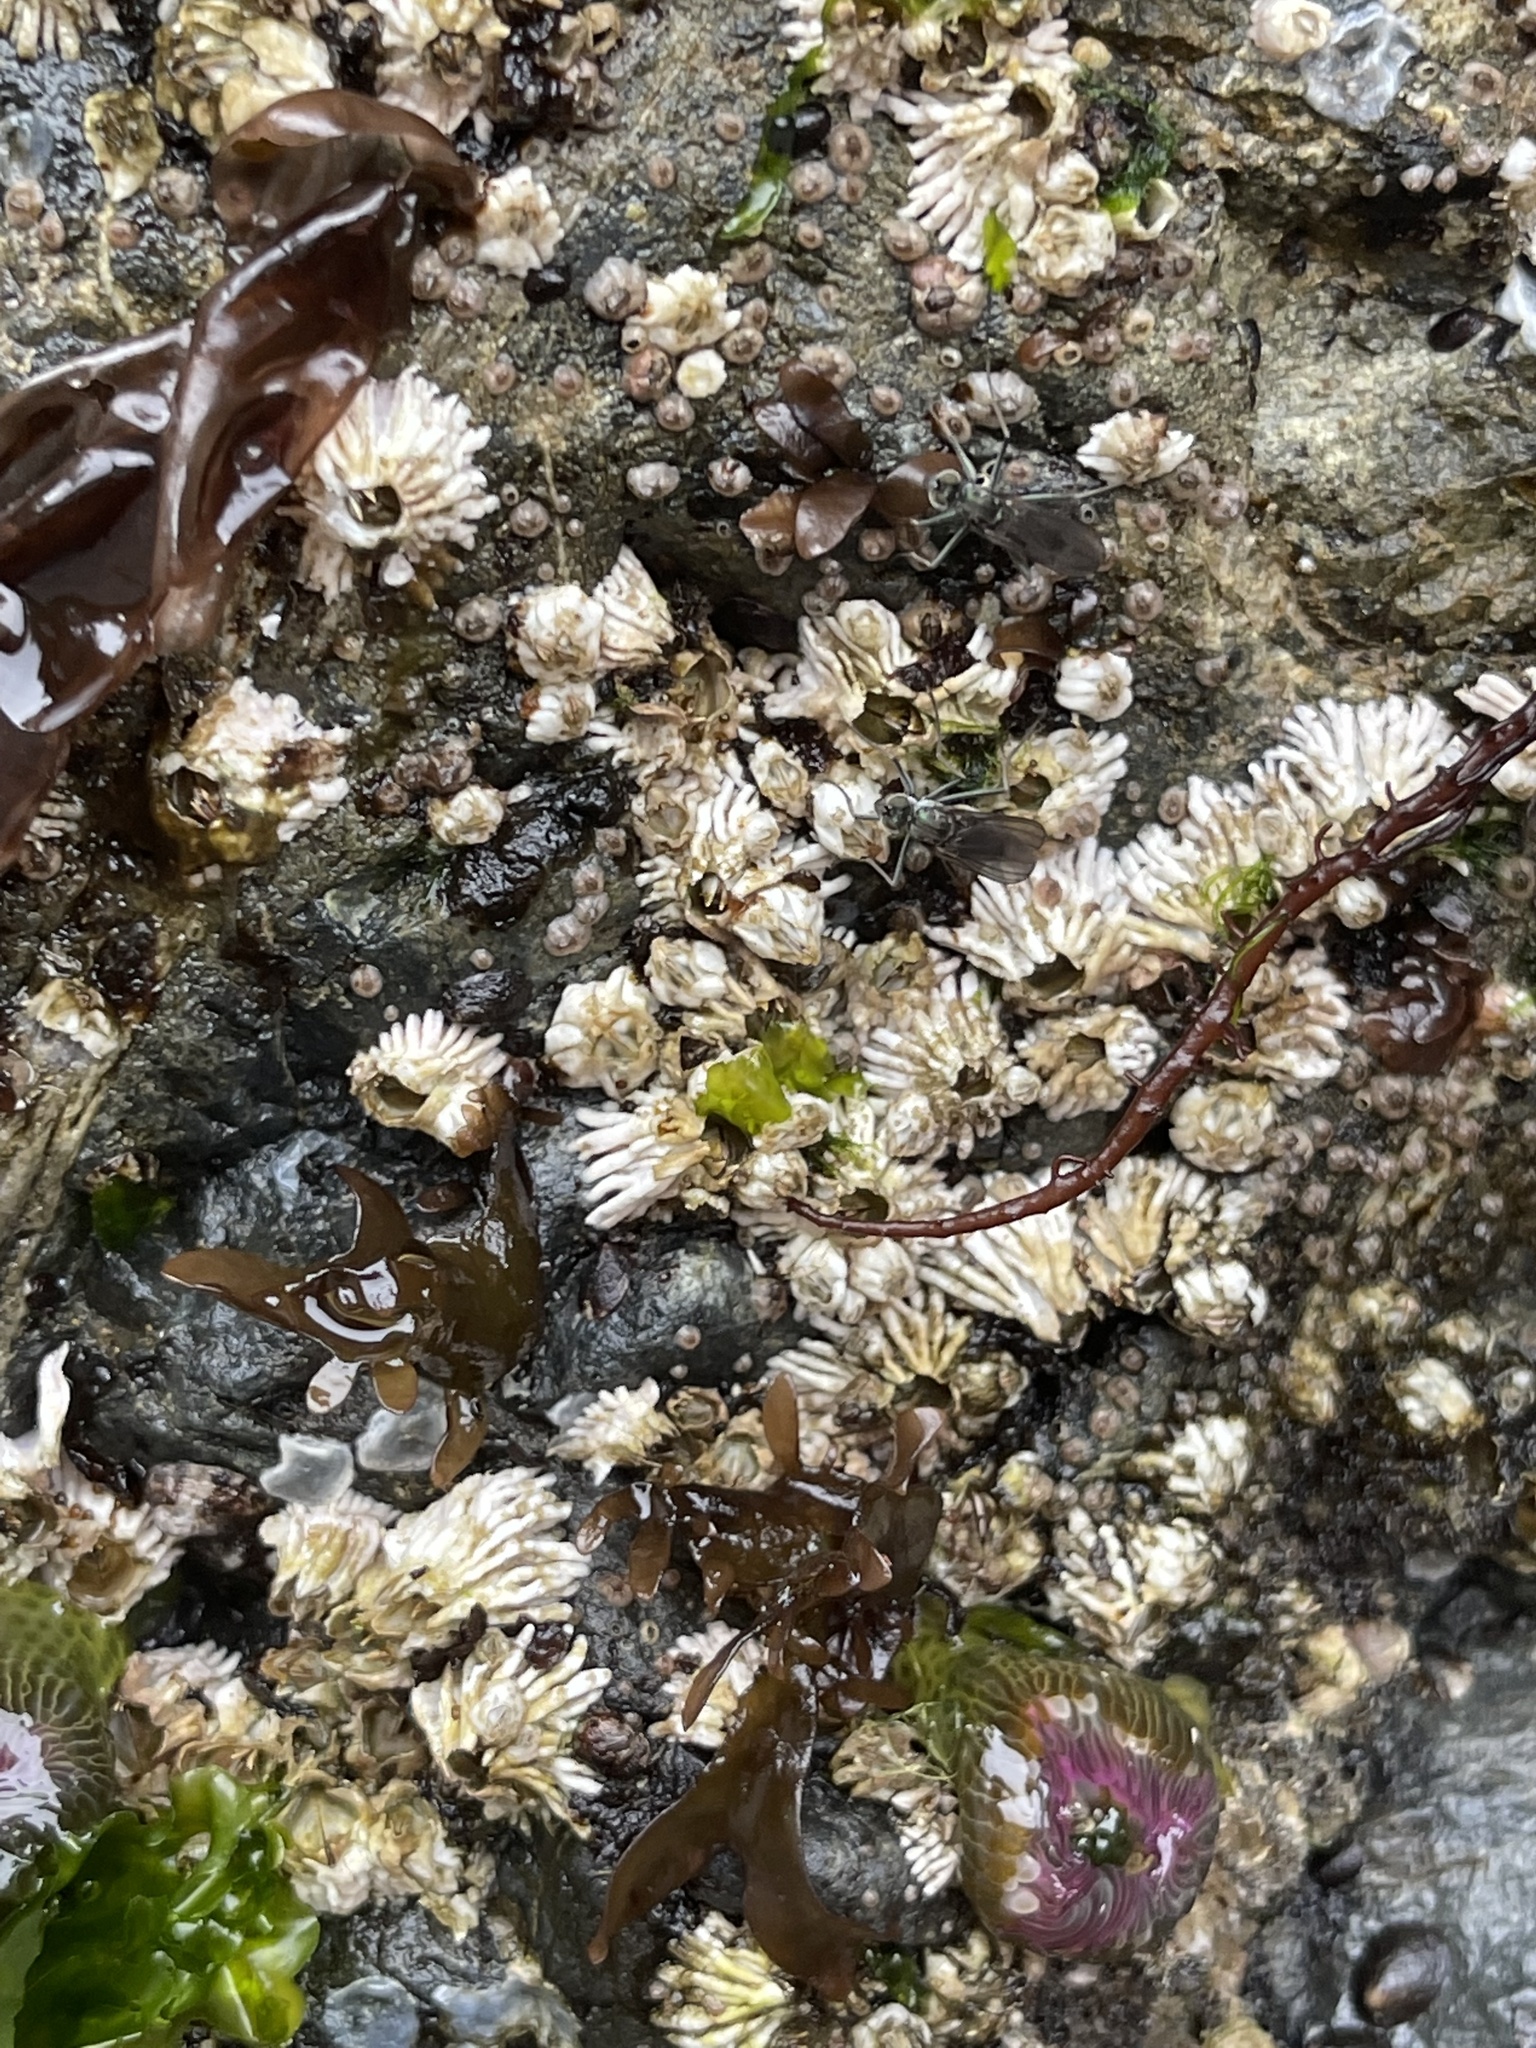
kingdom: Animalia
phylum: Arthropoda
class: Insecta
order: Diptera
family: Dolichopodidae
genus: Thambemyia
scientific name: Thambemyia borealis
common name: Fly
